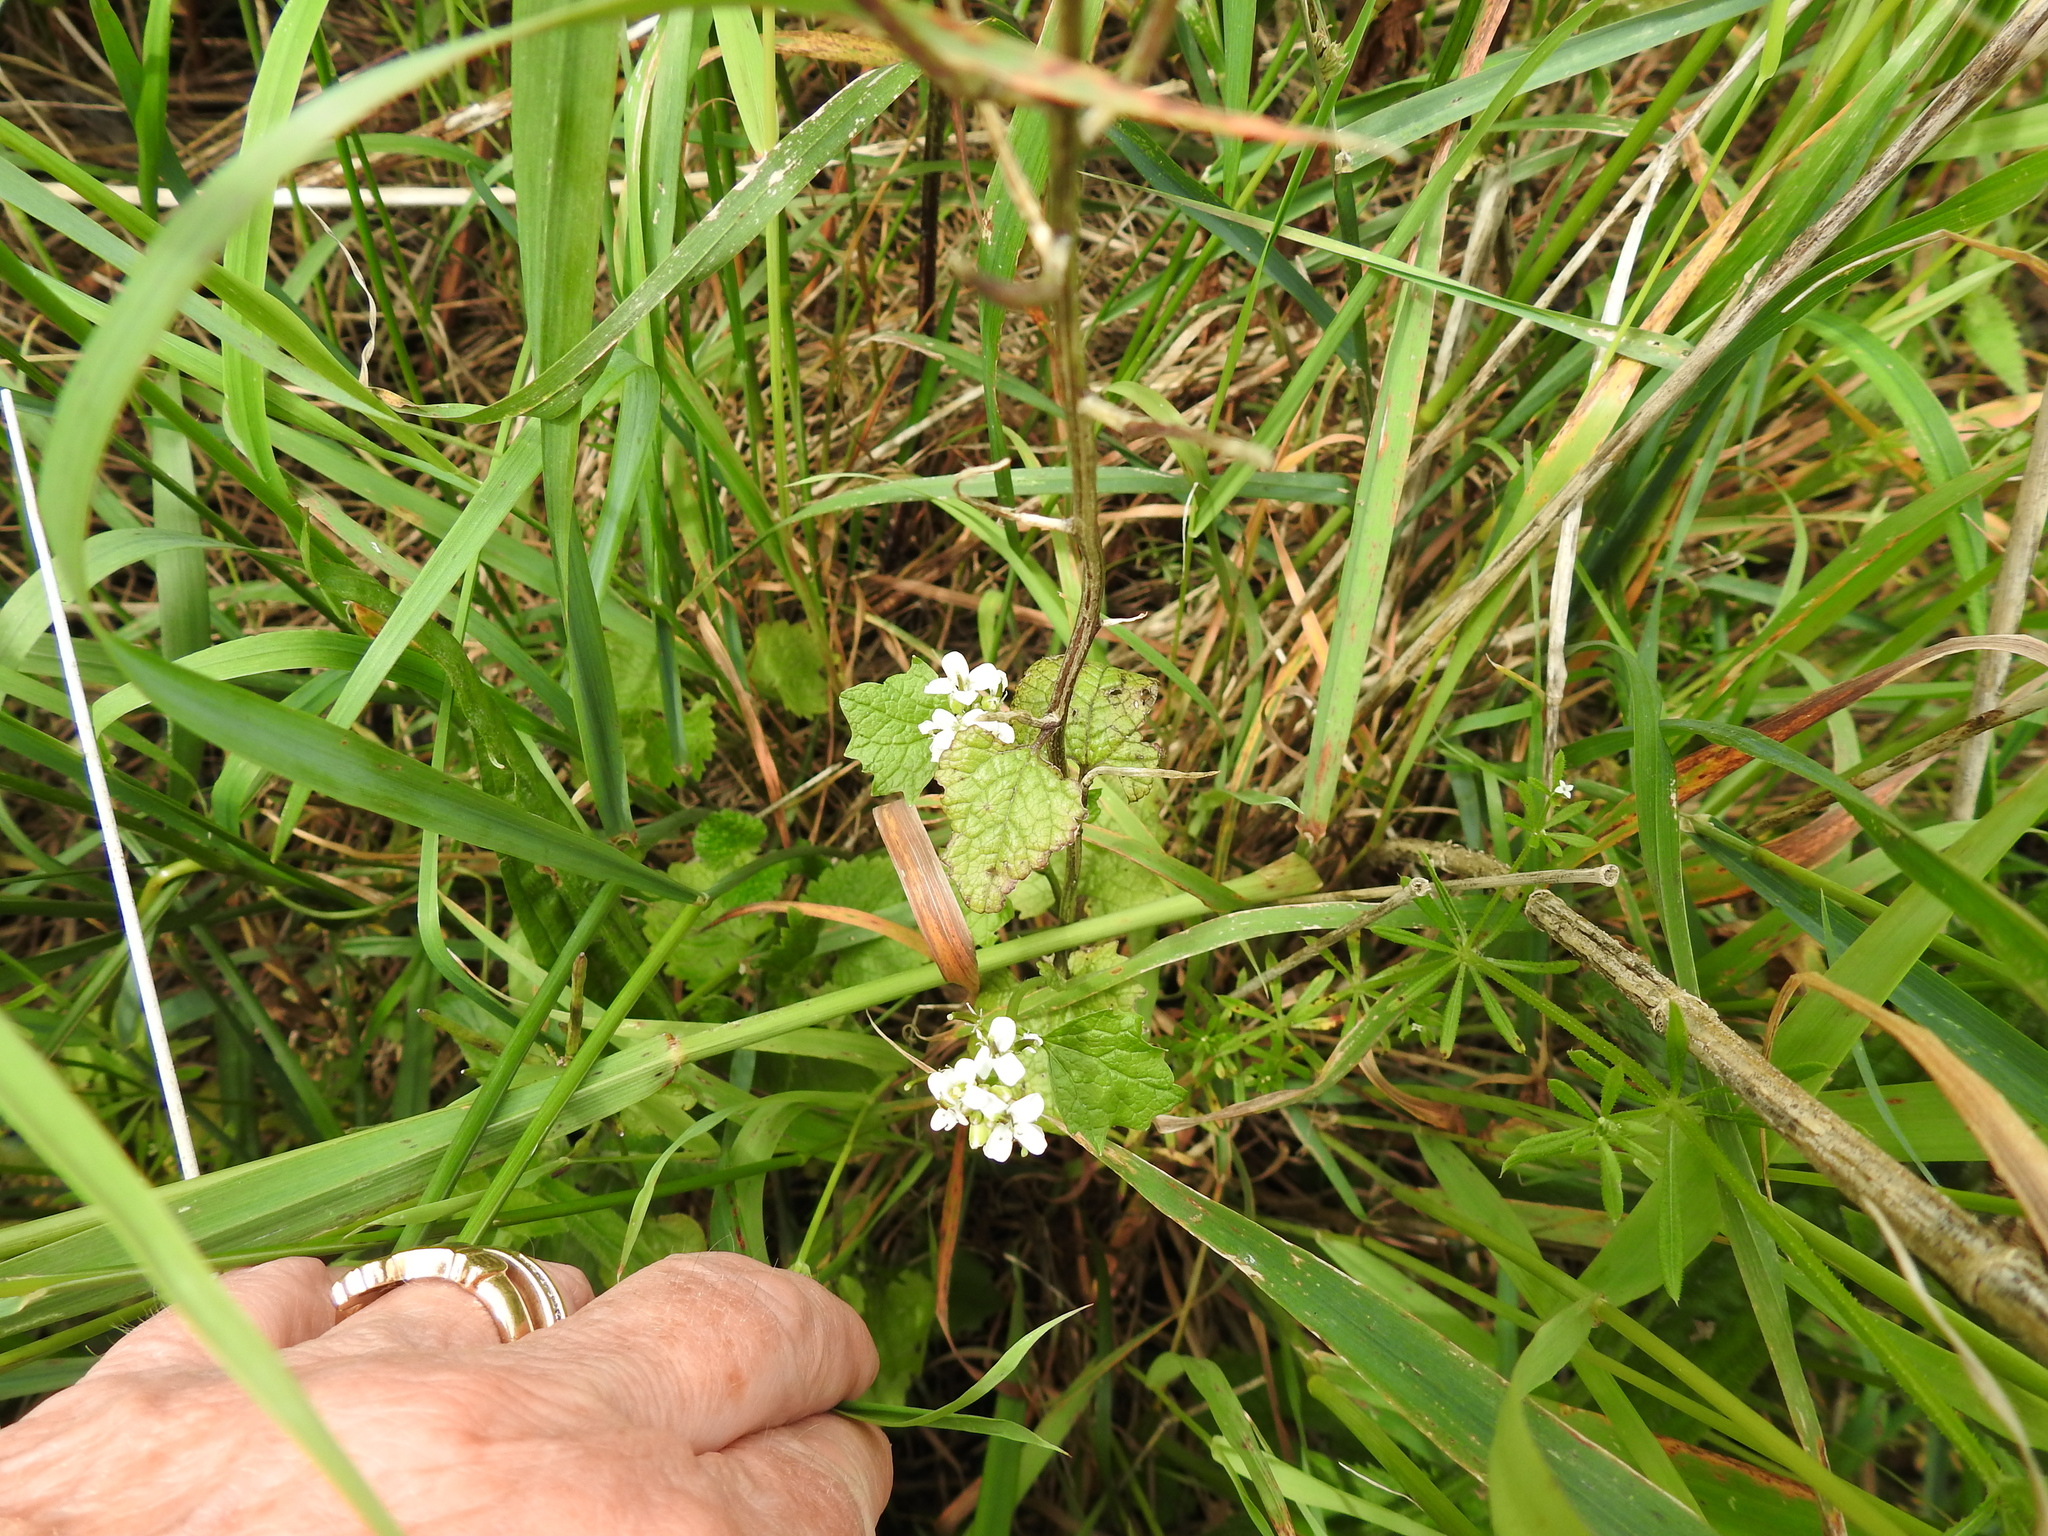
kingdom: Plantae
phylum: Tracheophyta
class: Magnoliopsida
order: Brassicales
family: Brassicaceae
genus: Alliaria
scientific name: Alliaria petiolata
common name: Garlic mustard
